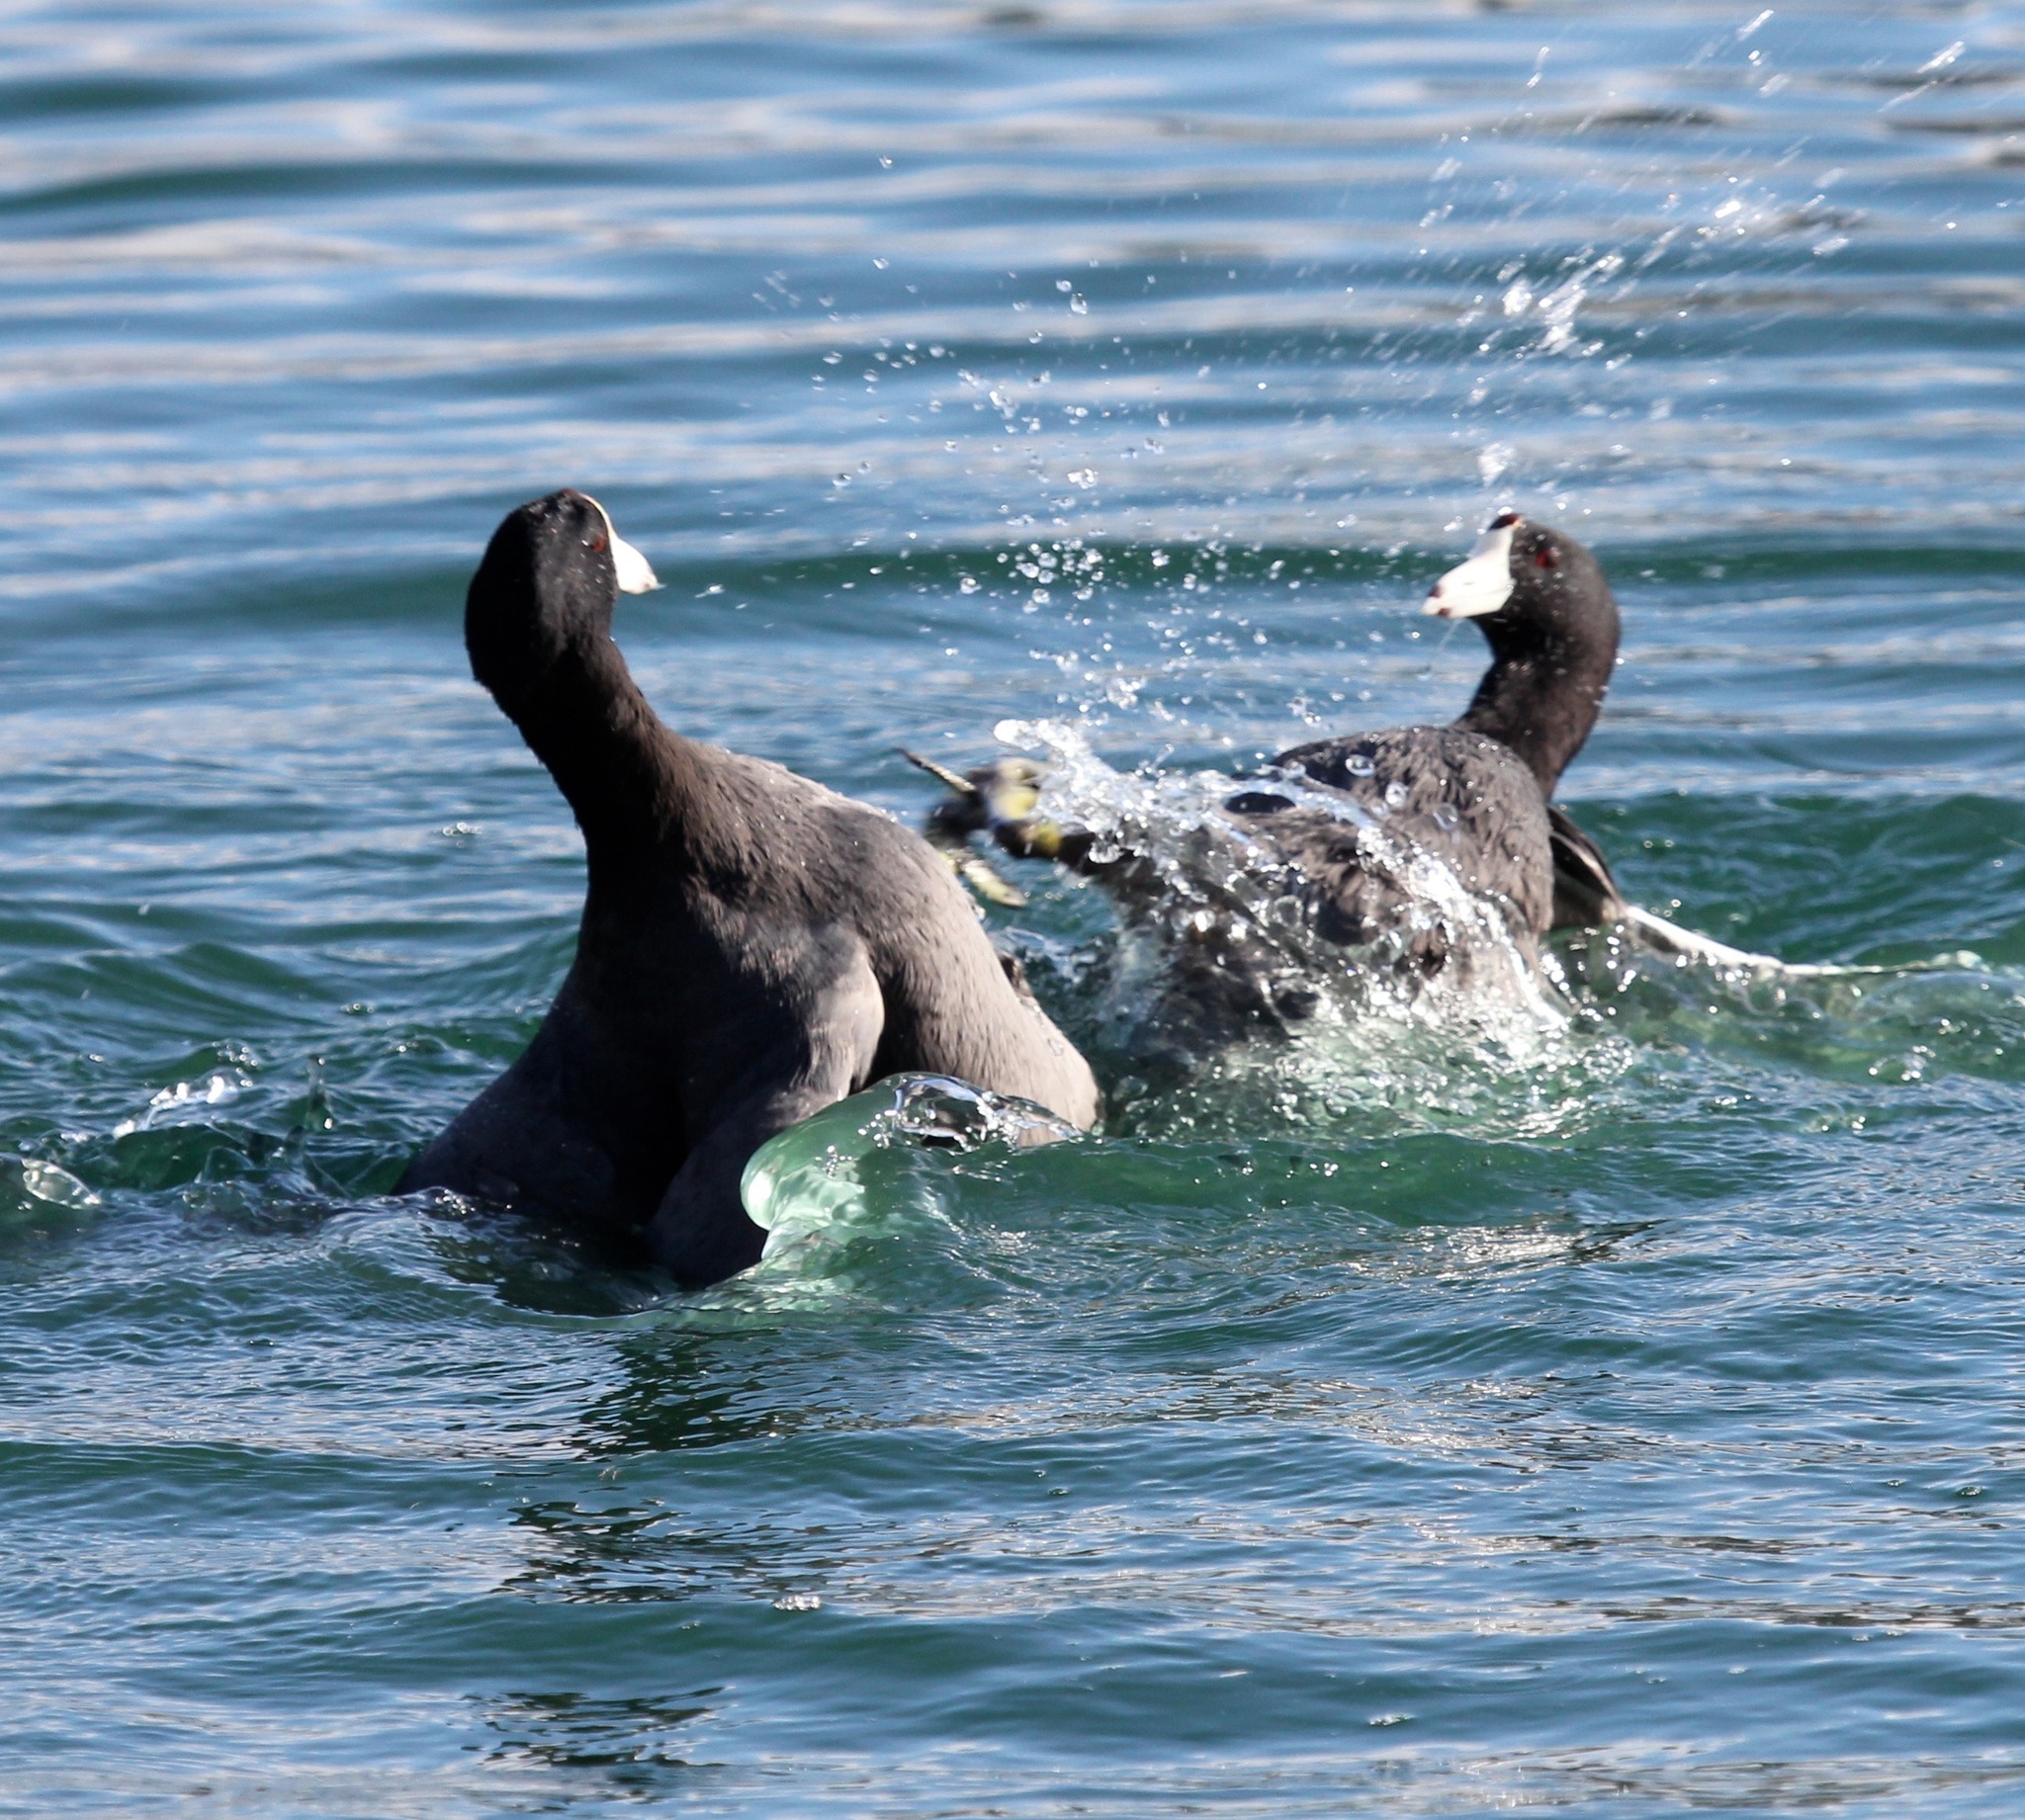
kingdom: Animalia
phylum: Chordata
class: Aves
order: Gruiformes
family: Rallidae
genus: Fulica
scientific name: Fulica americana
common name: American coot
